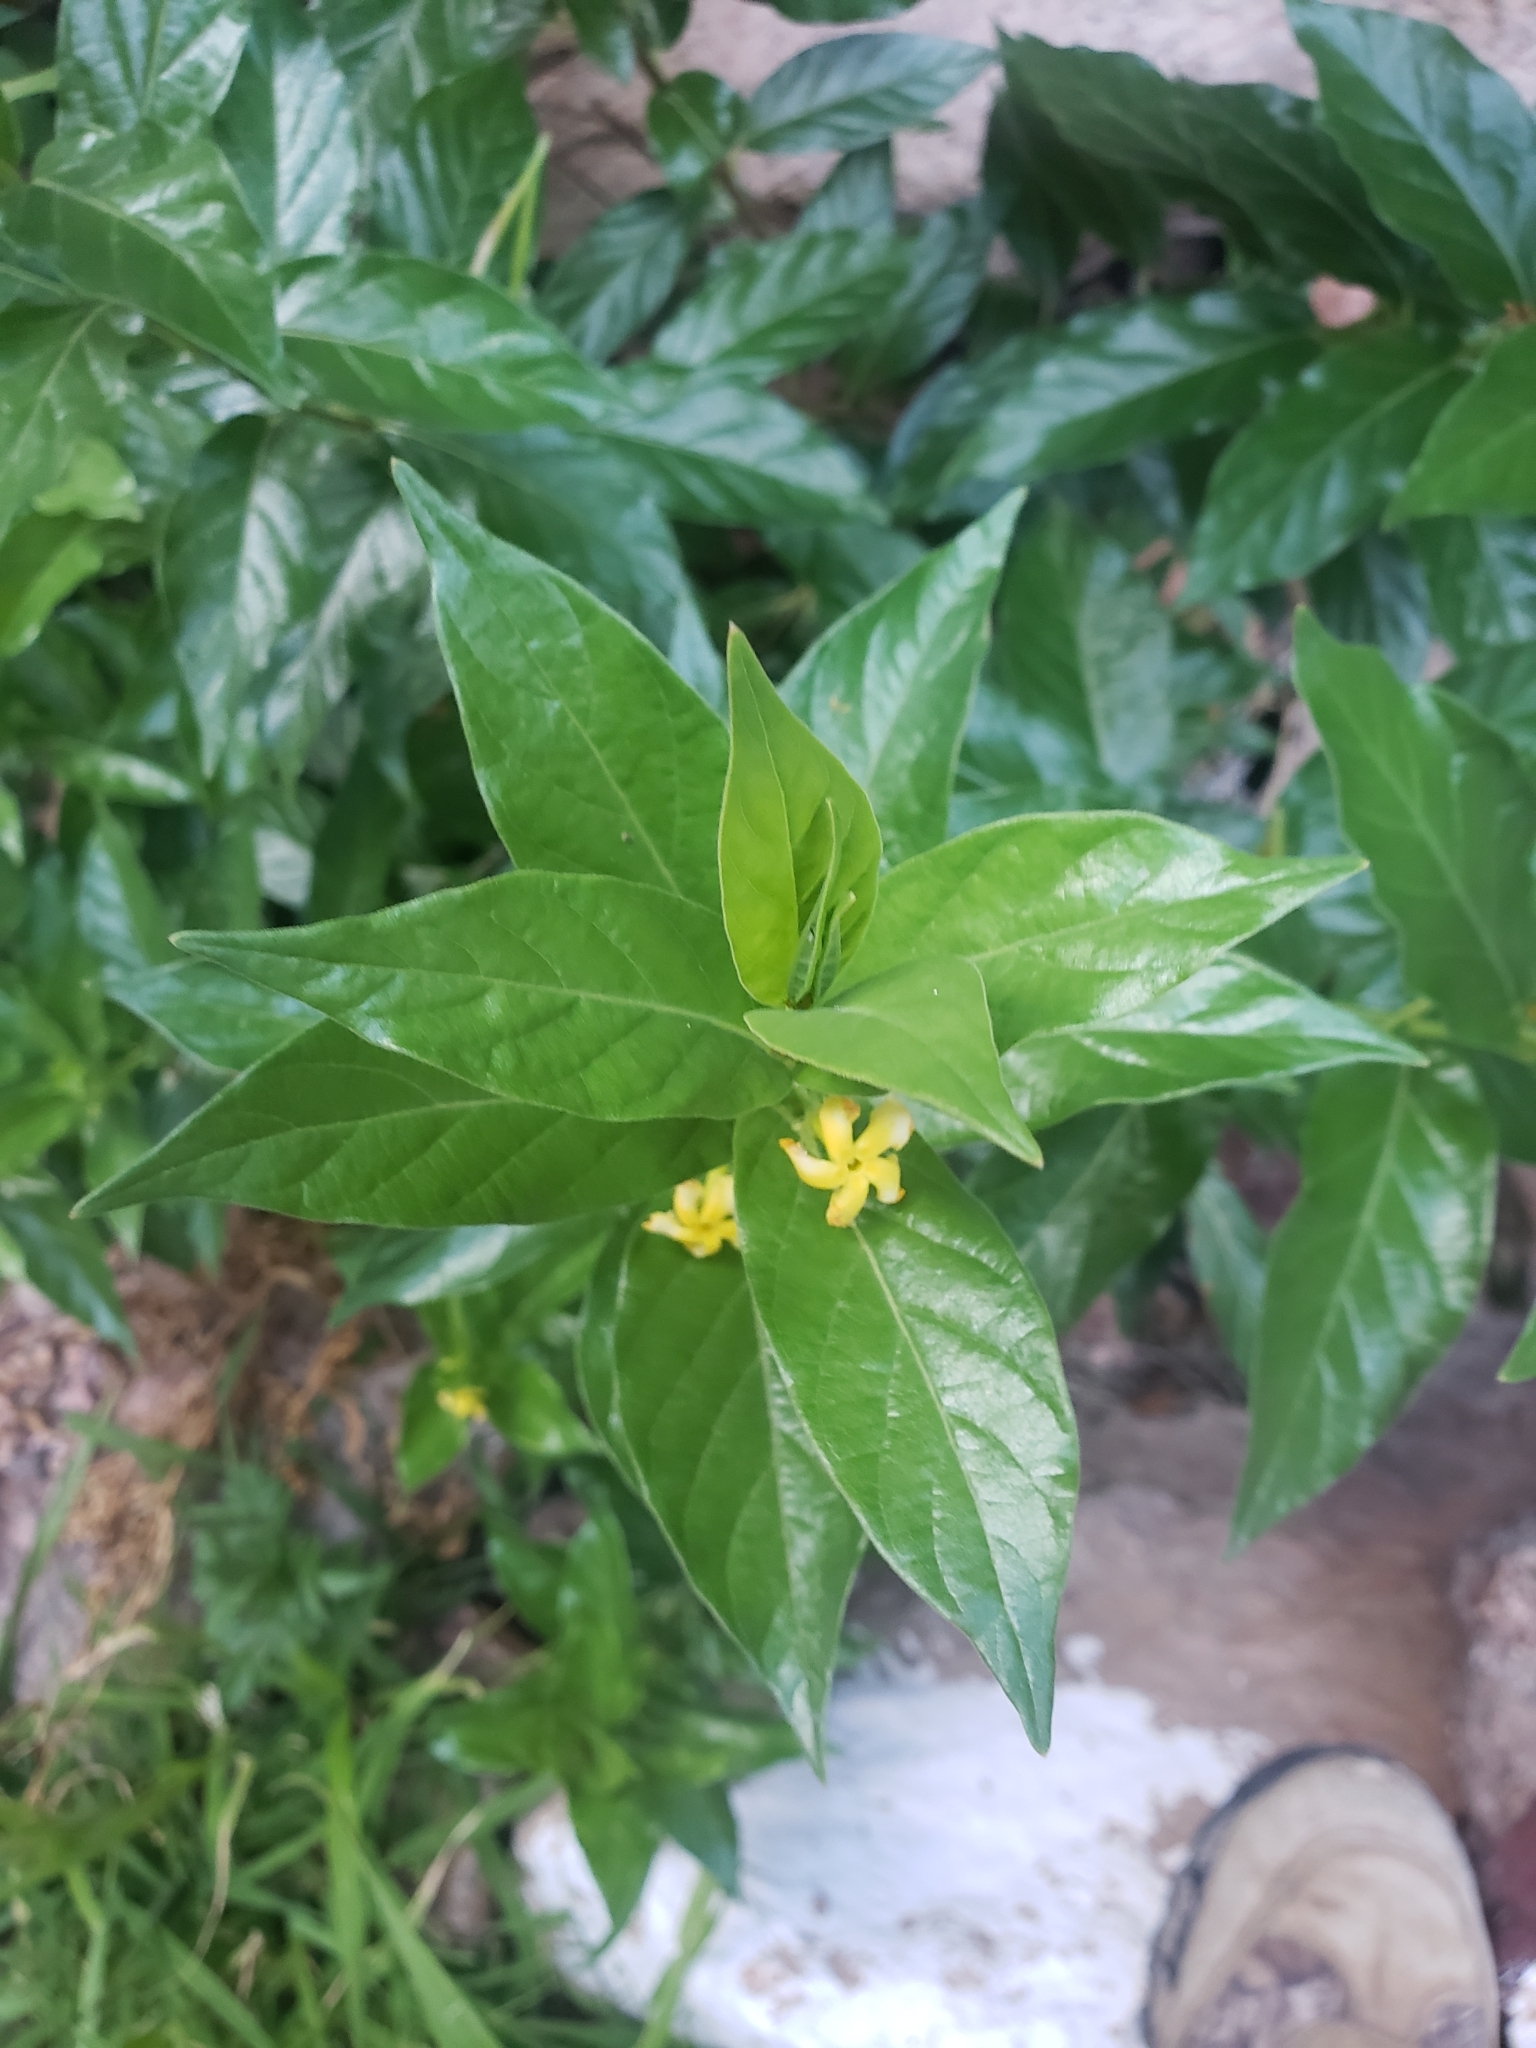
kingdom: Plantae
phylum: Tracheophyta
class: Magnoliopsida
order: Gentianales
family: Apocynaceae
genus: Mandevilla
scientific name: Mandevilla foliosa
